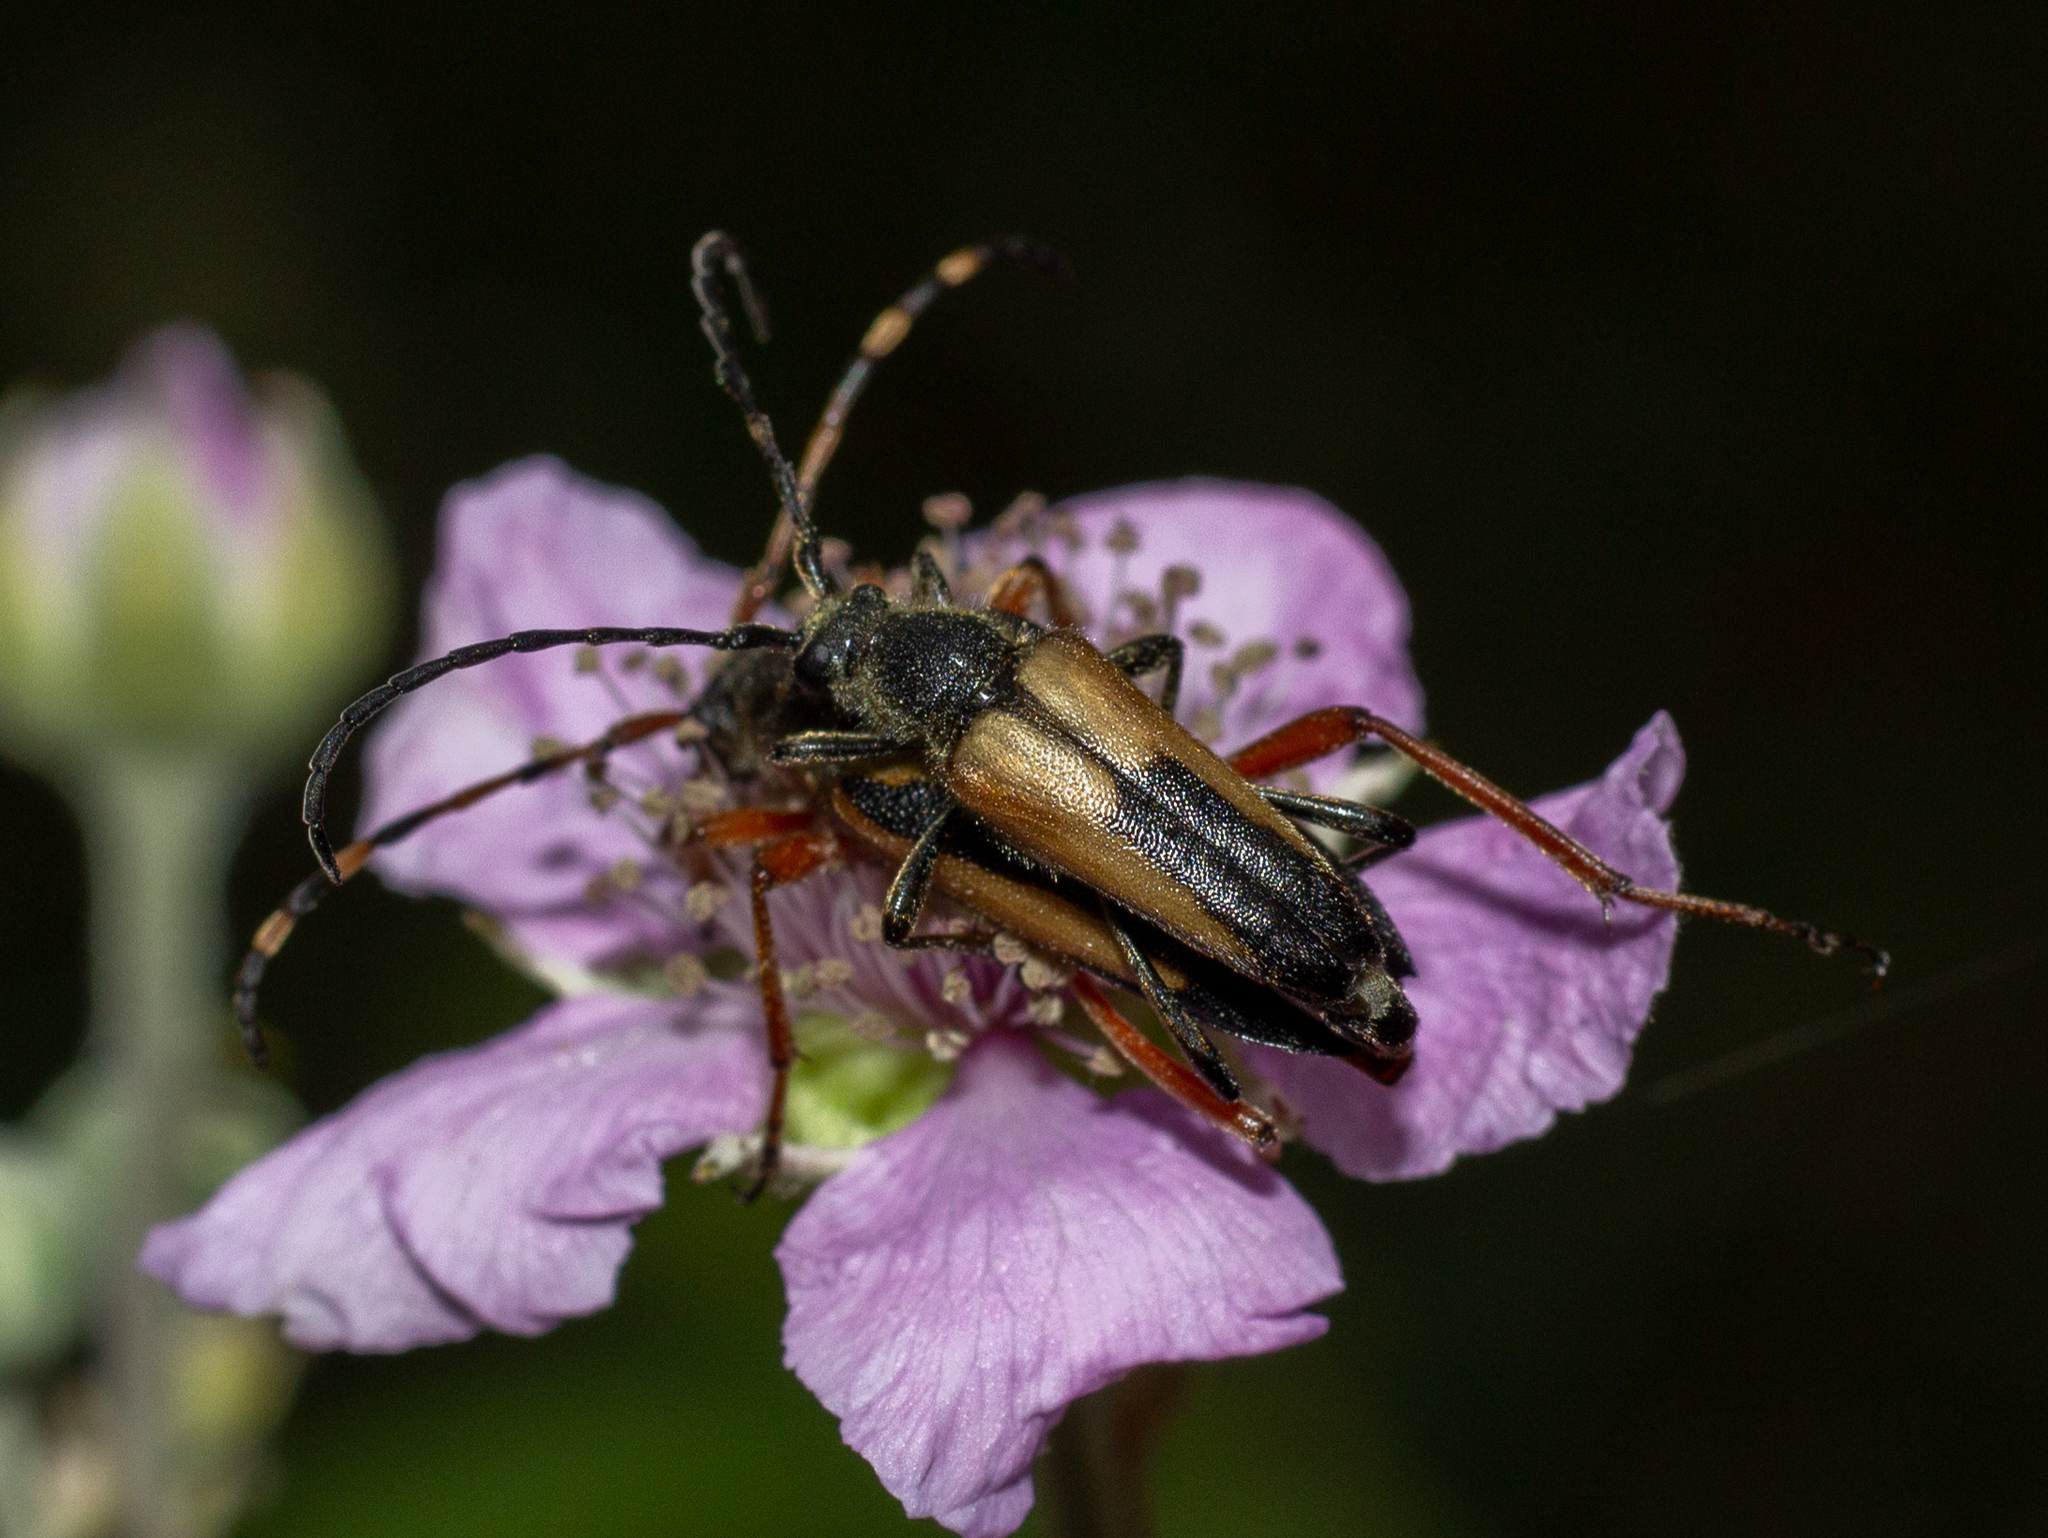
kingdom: Animalia
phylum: Arthropoda
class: Insecta
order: Coleoptera
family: Cerambycidae
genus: Stictoleptura
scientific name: Stictoleptura stragulata
